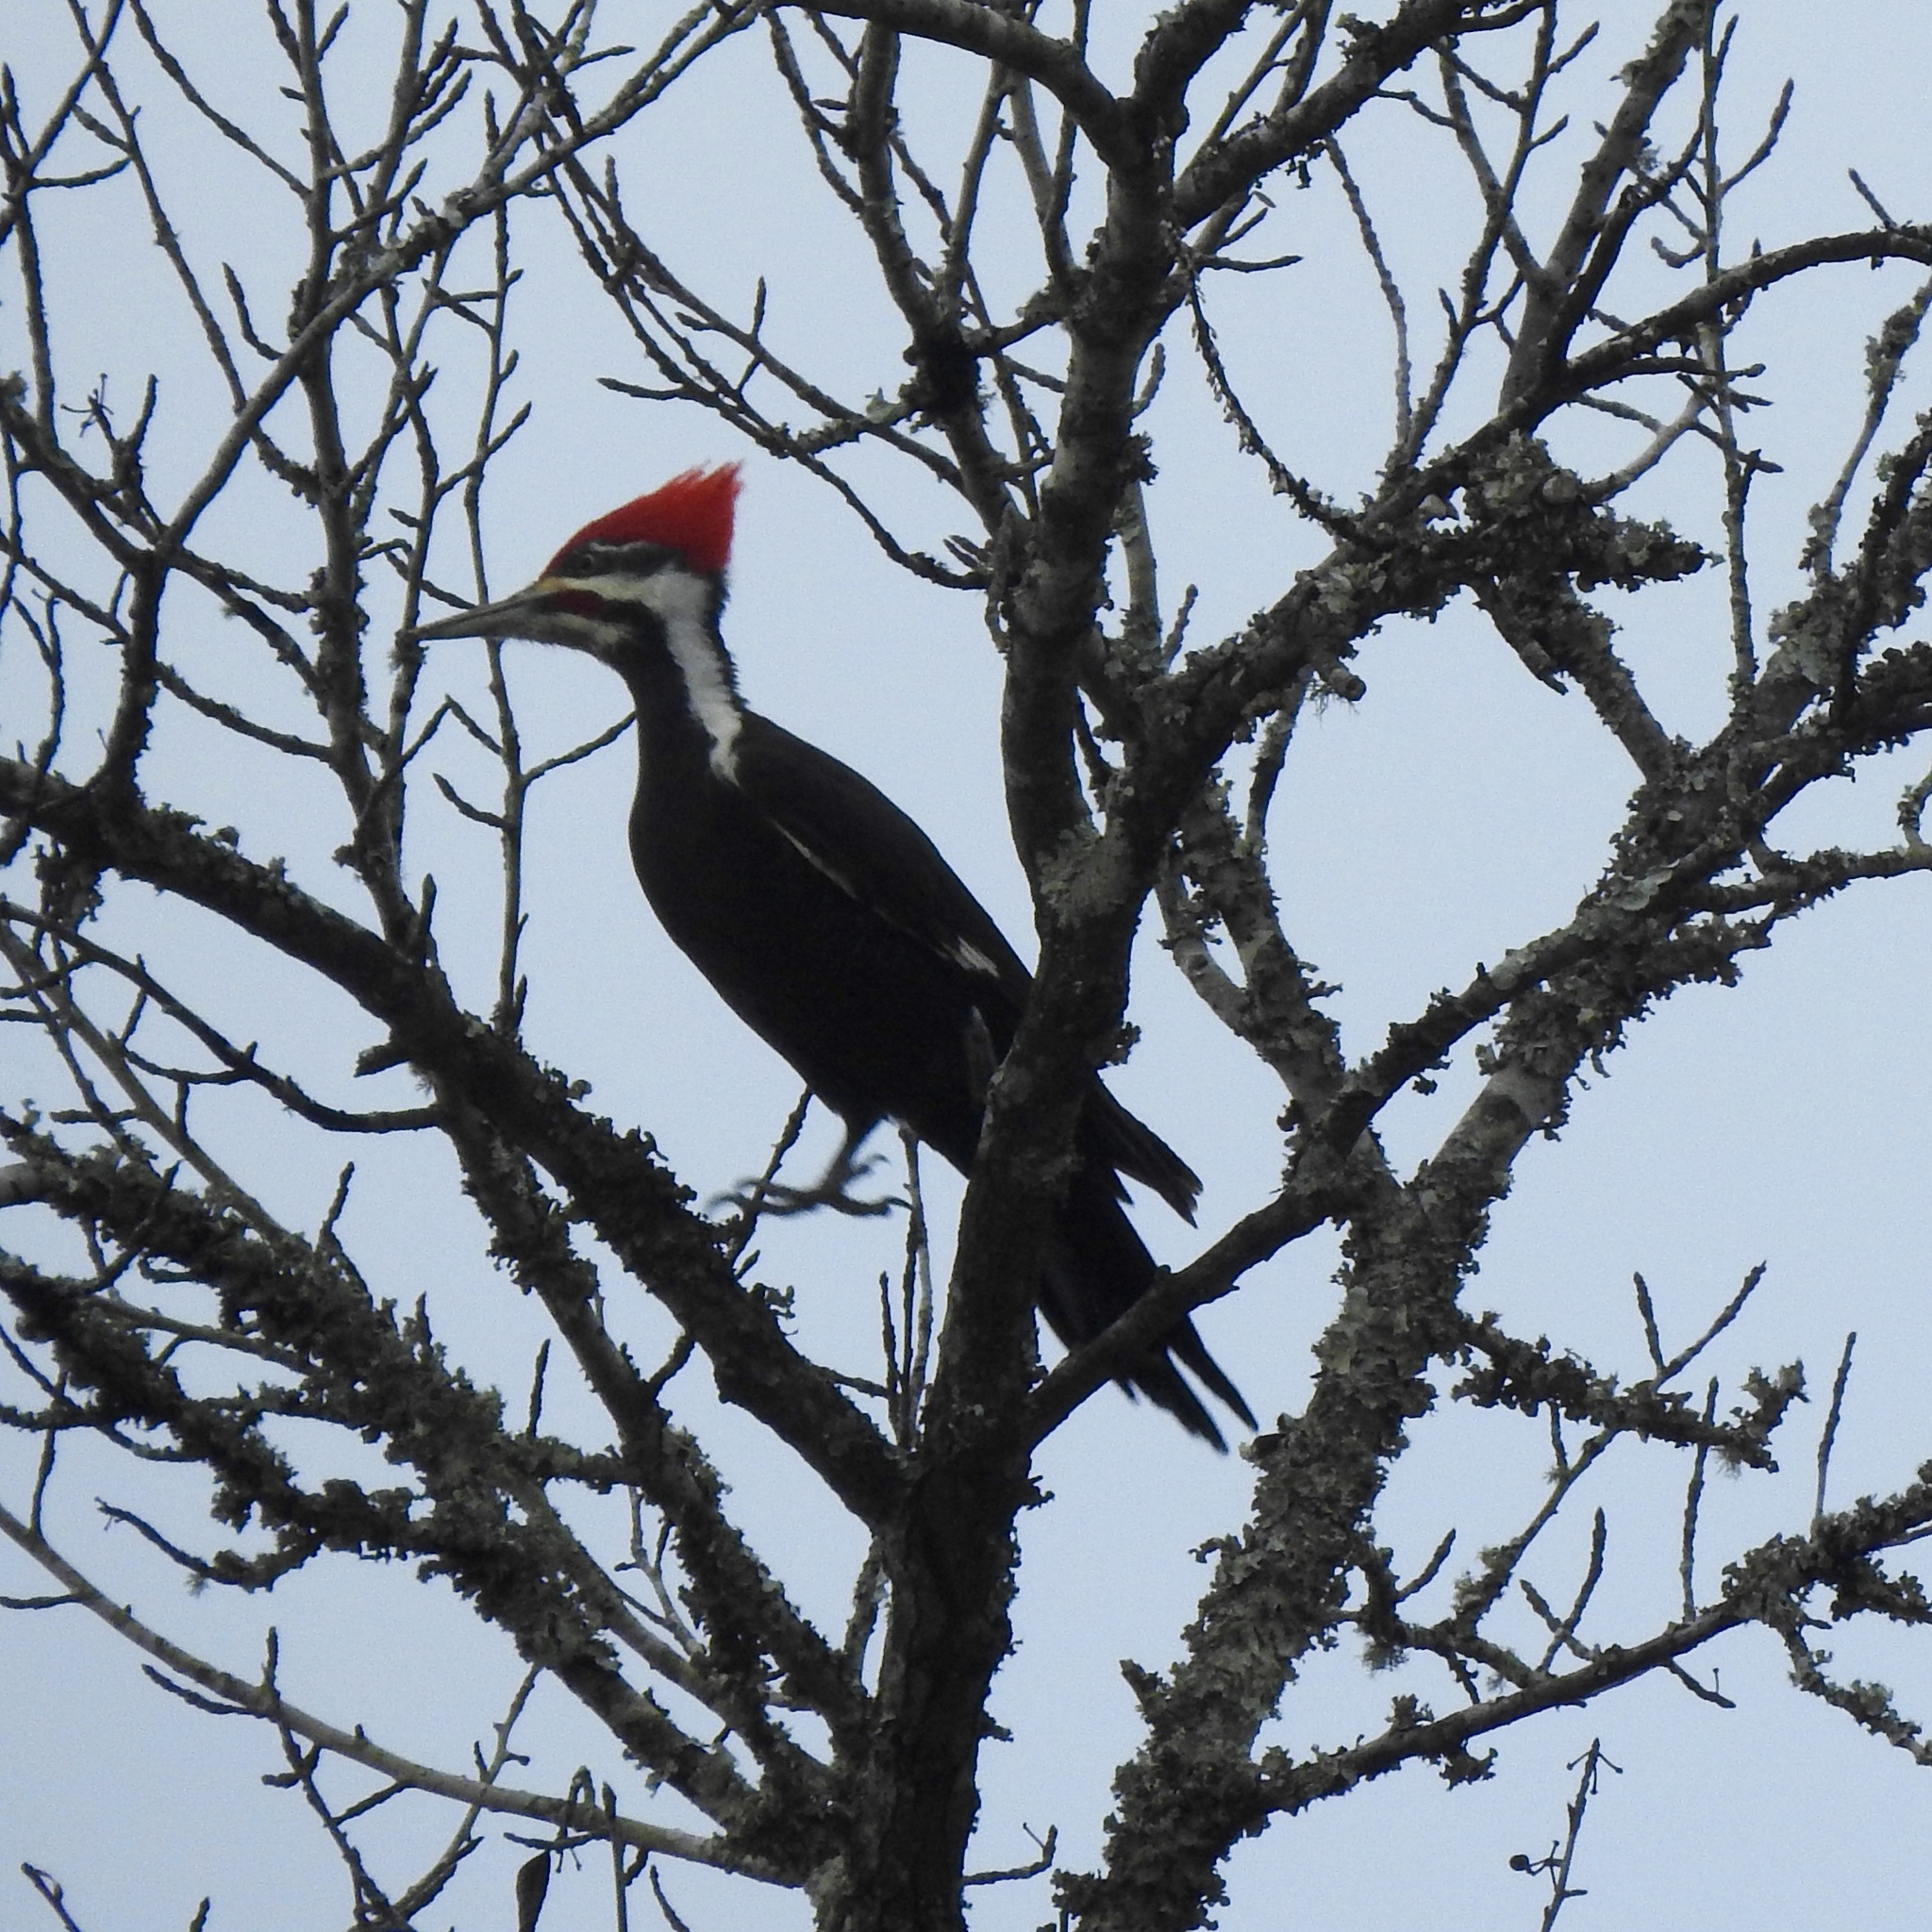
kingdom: Animalia
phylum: Chordata
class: Aves
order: Piciformes
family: Picidae
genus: Dryocopus
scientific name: Dryocopus pileatus
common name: Pileated woodpecker
